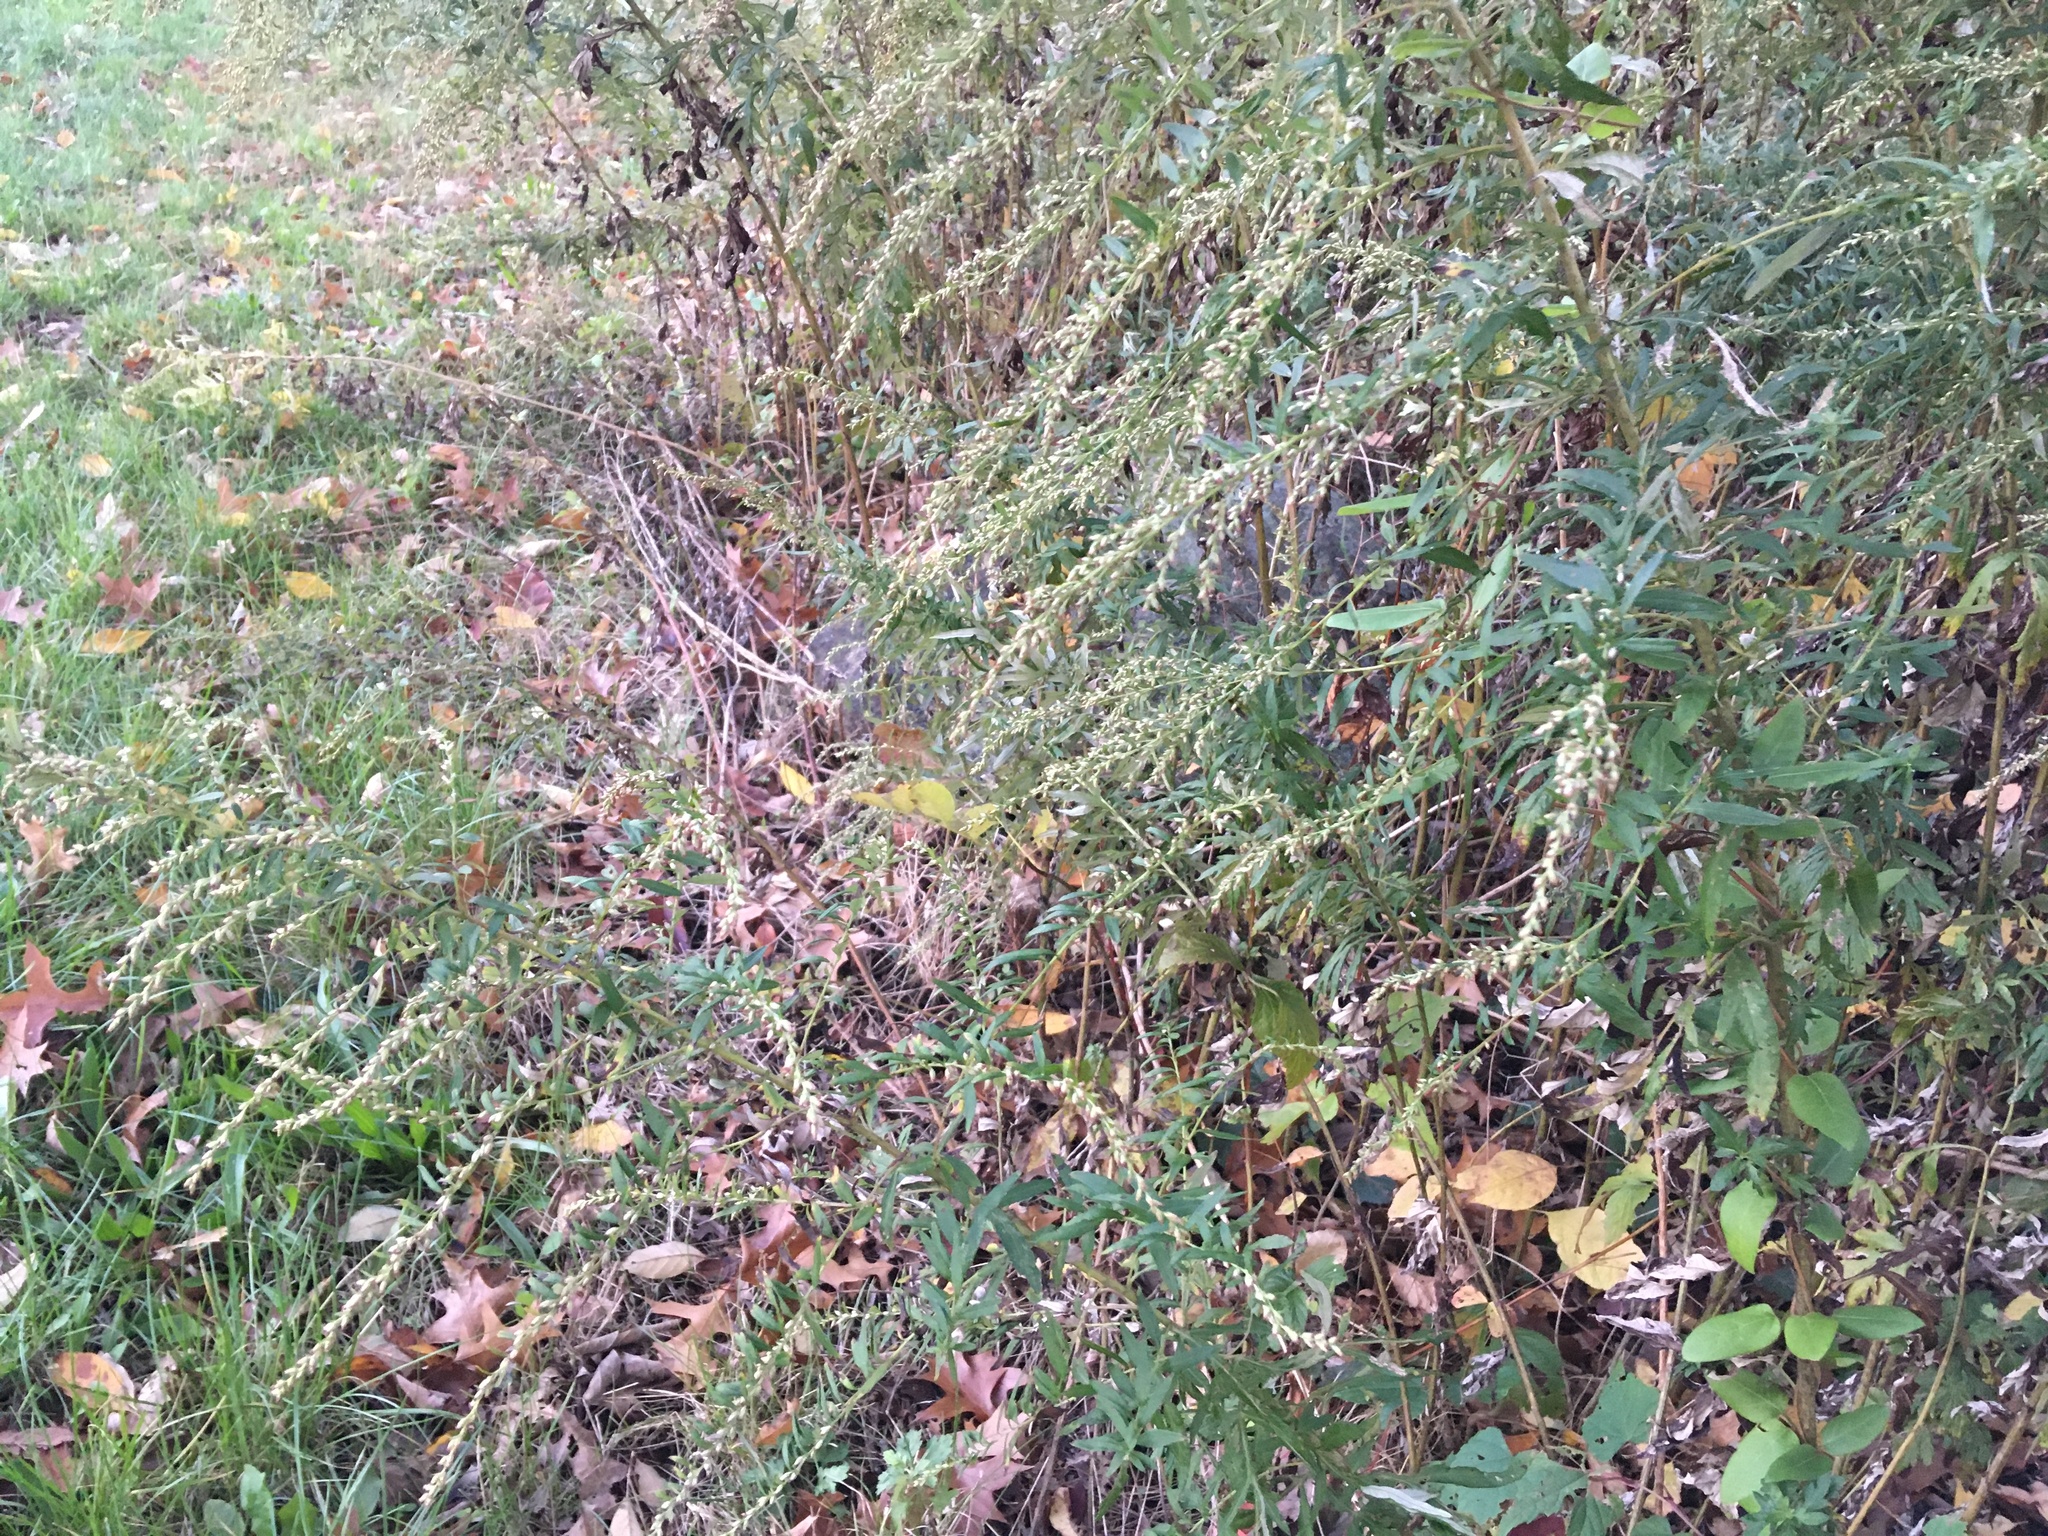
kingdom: Plantae
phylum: Tracheophyta
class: Magnoliopsida
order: Asterales
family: Asteraceae
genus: Artemisia
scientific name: Artemisia vulgaris
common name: Mugwort
